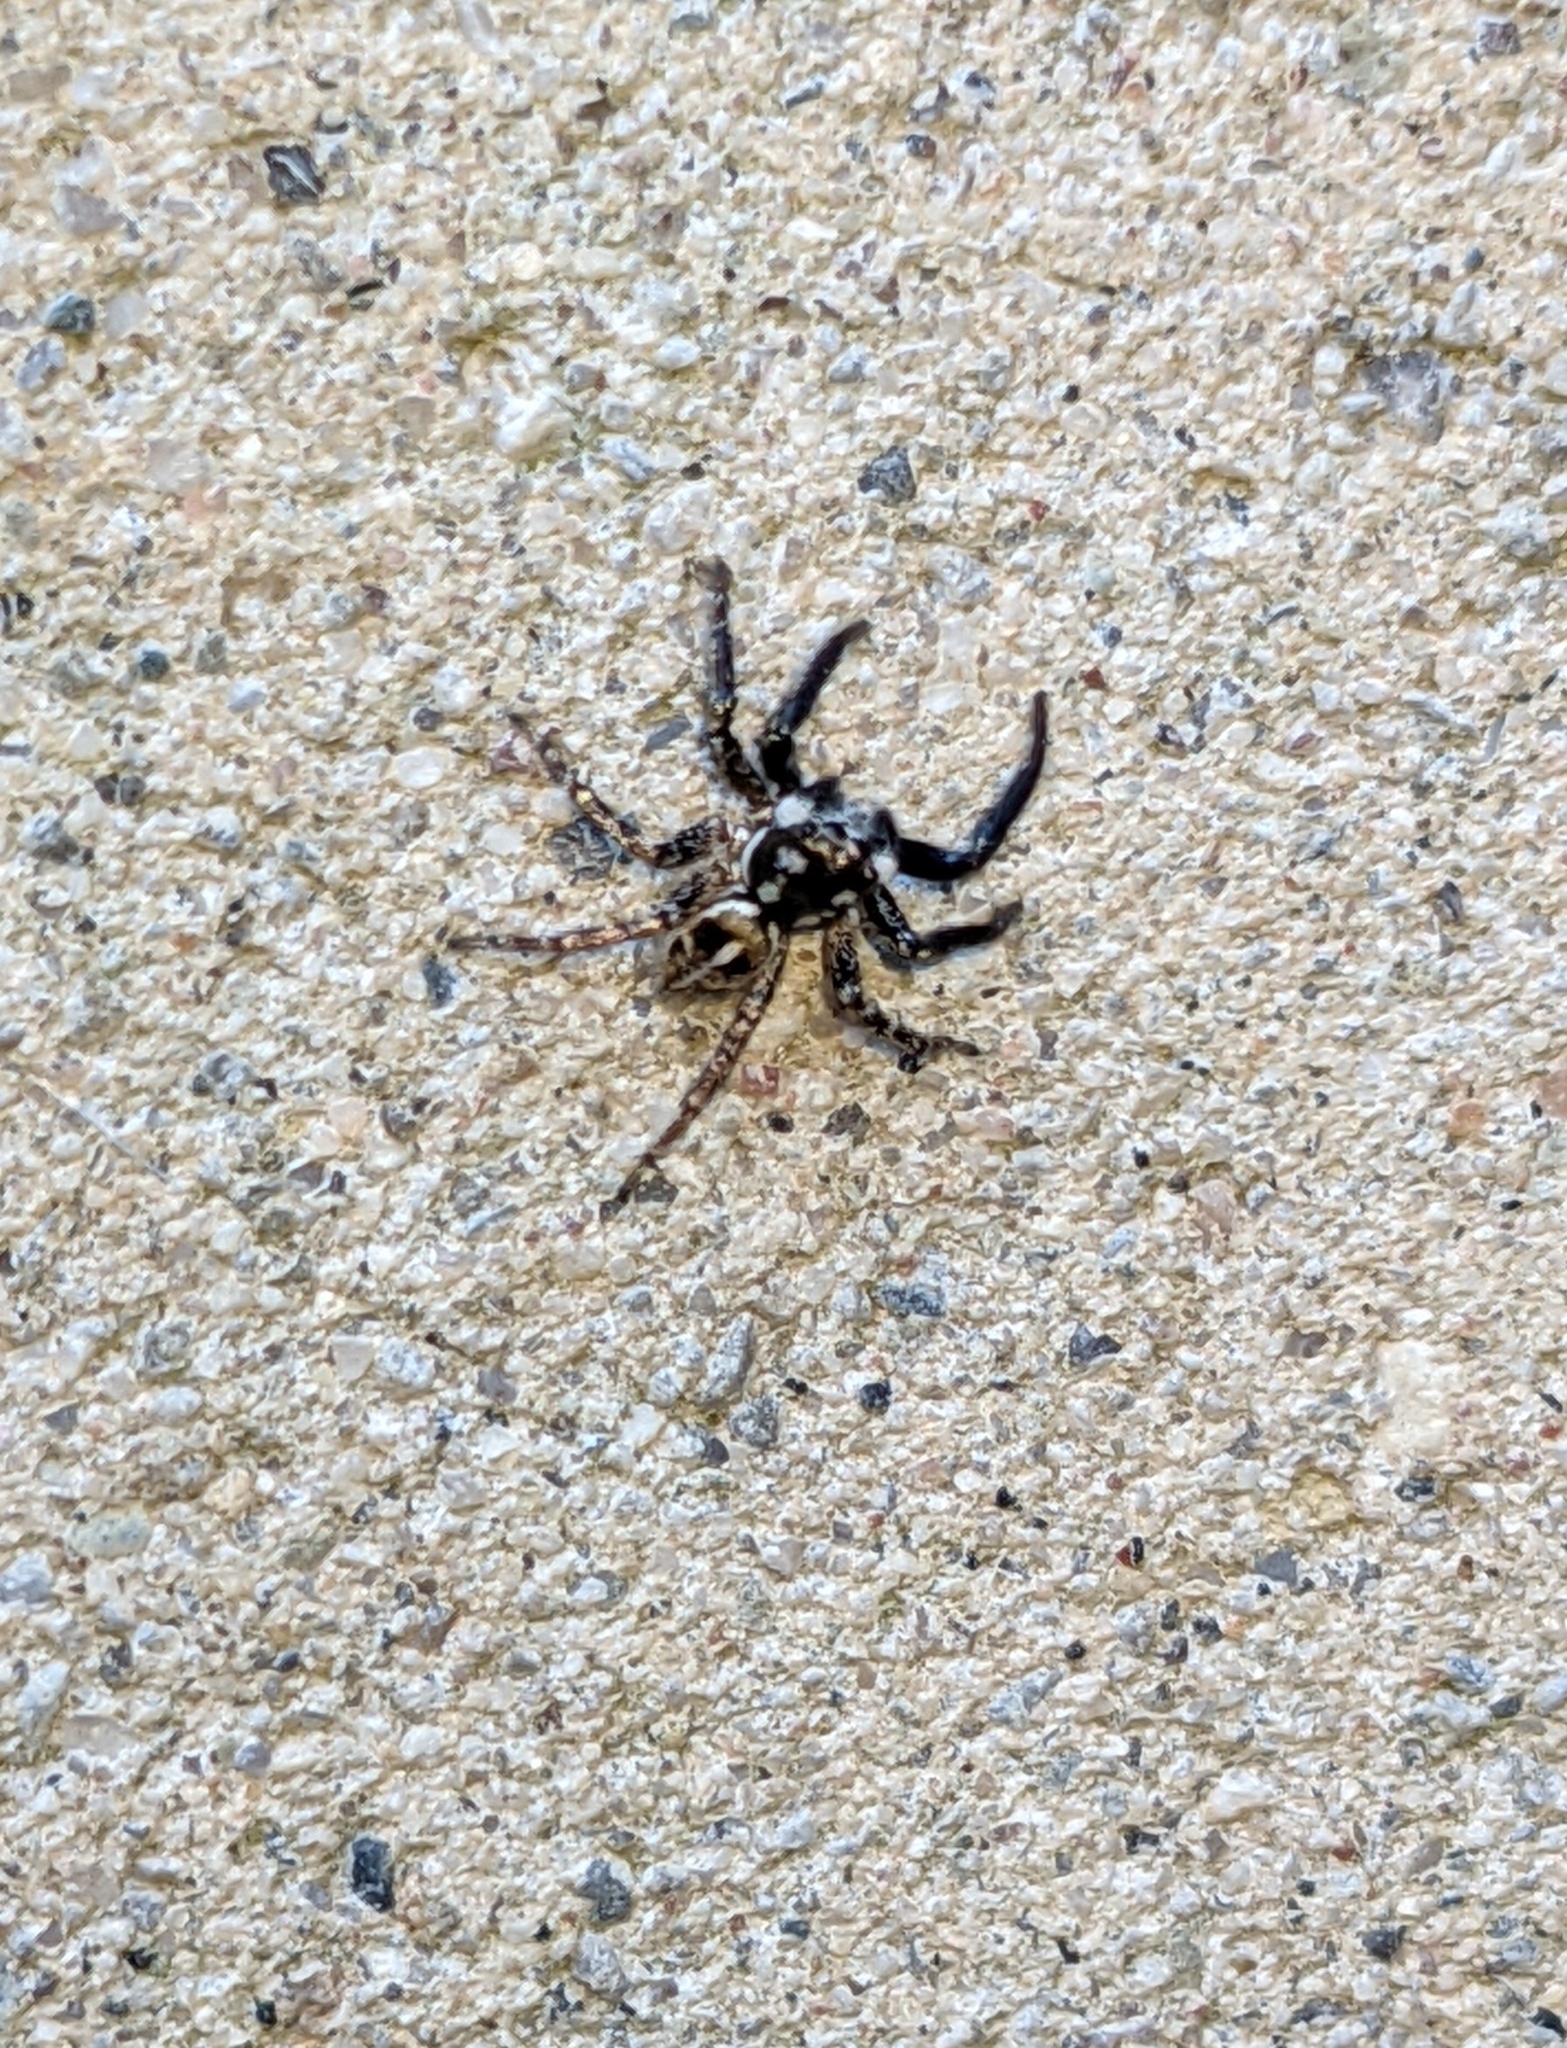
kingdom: Animalia
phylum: Arthropoda
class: Arachnida
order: Araneae
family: Salticidae
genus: Anasaitis
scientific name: Anasaitis canosa
